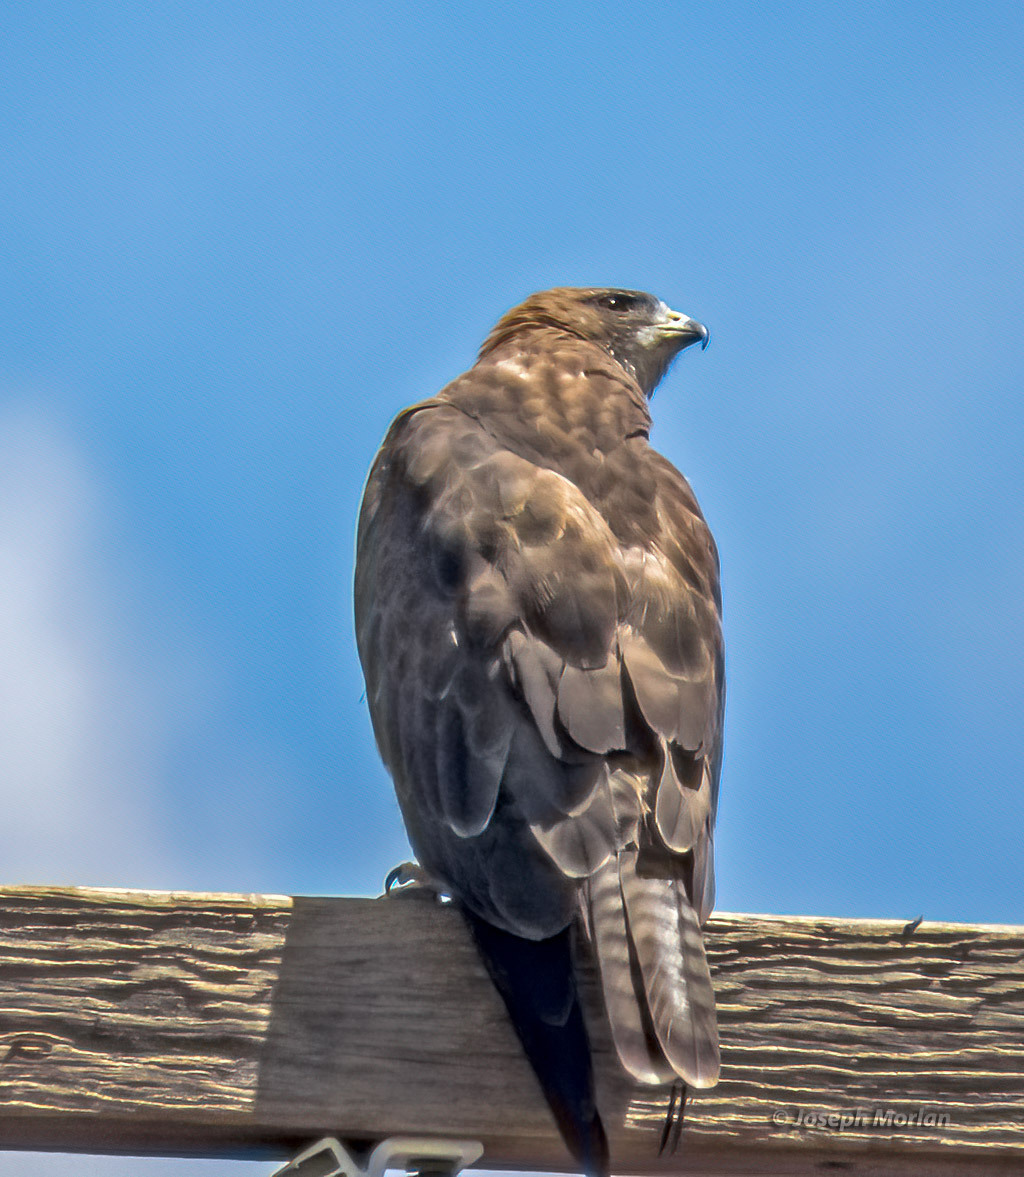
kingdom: Animalia
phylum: Chordata
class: Aves
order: Accipitriformes
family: Accipitridae
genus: Buteo
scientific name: Buteo swainsoni
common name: Swainson's hawk
